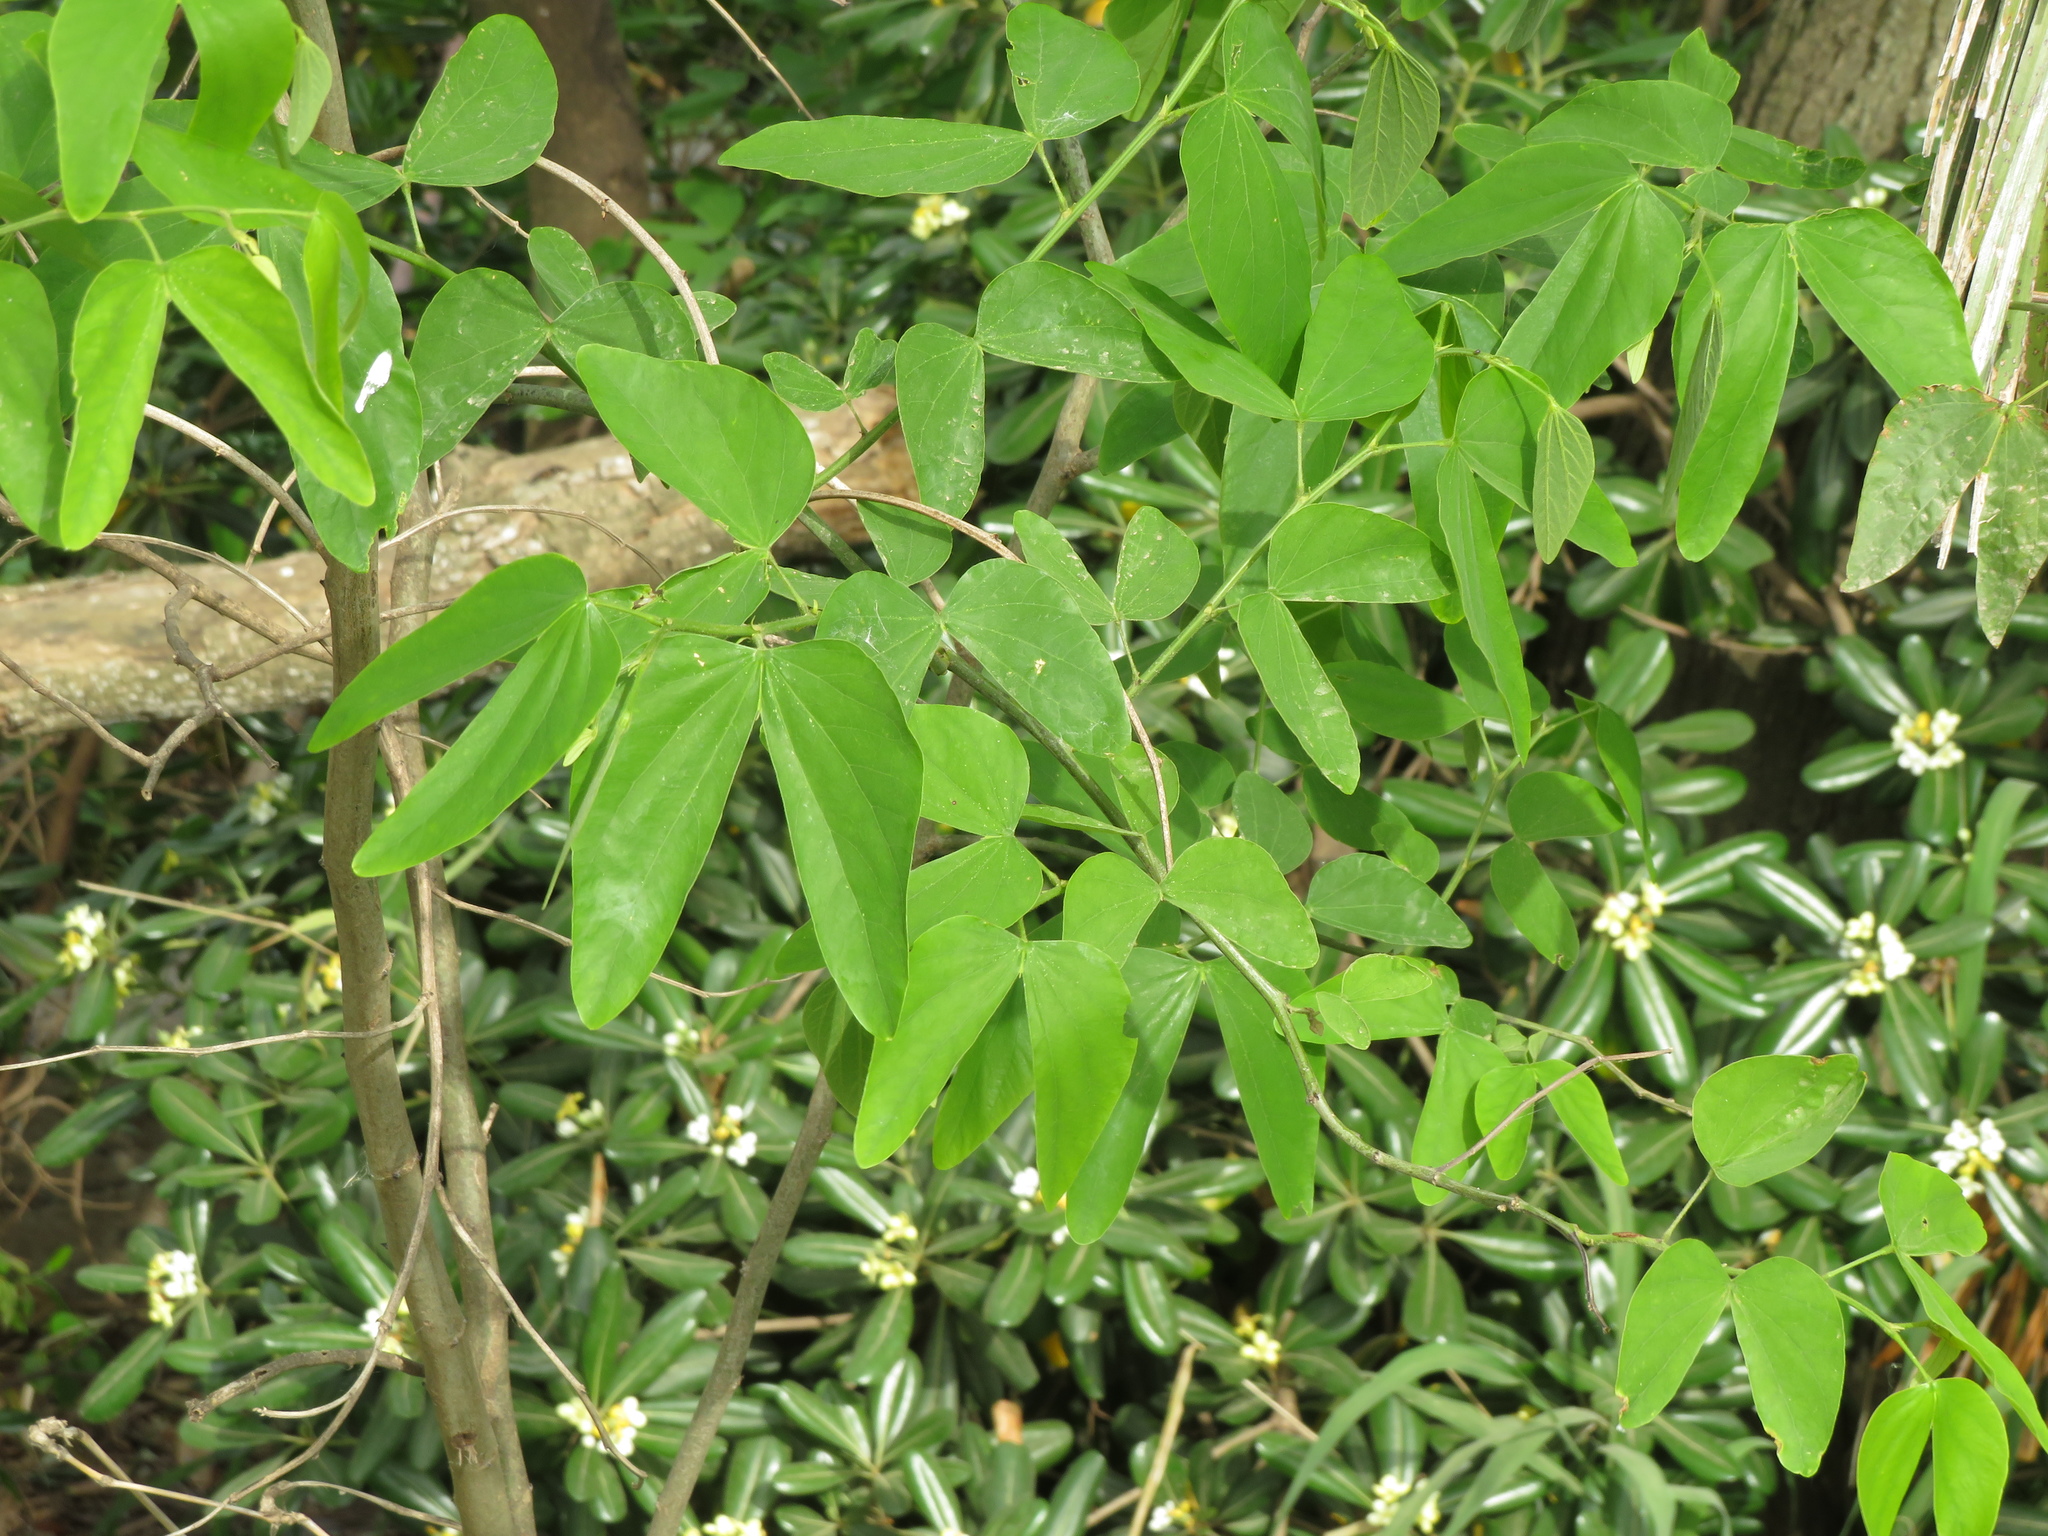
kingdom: Plantae
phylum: Tracheophyta
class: Magnoliopsida
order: Fabales
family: Fabaceae
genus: Bauhinia
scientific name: Bauhinia forficata
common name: Orchid tree
